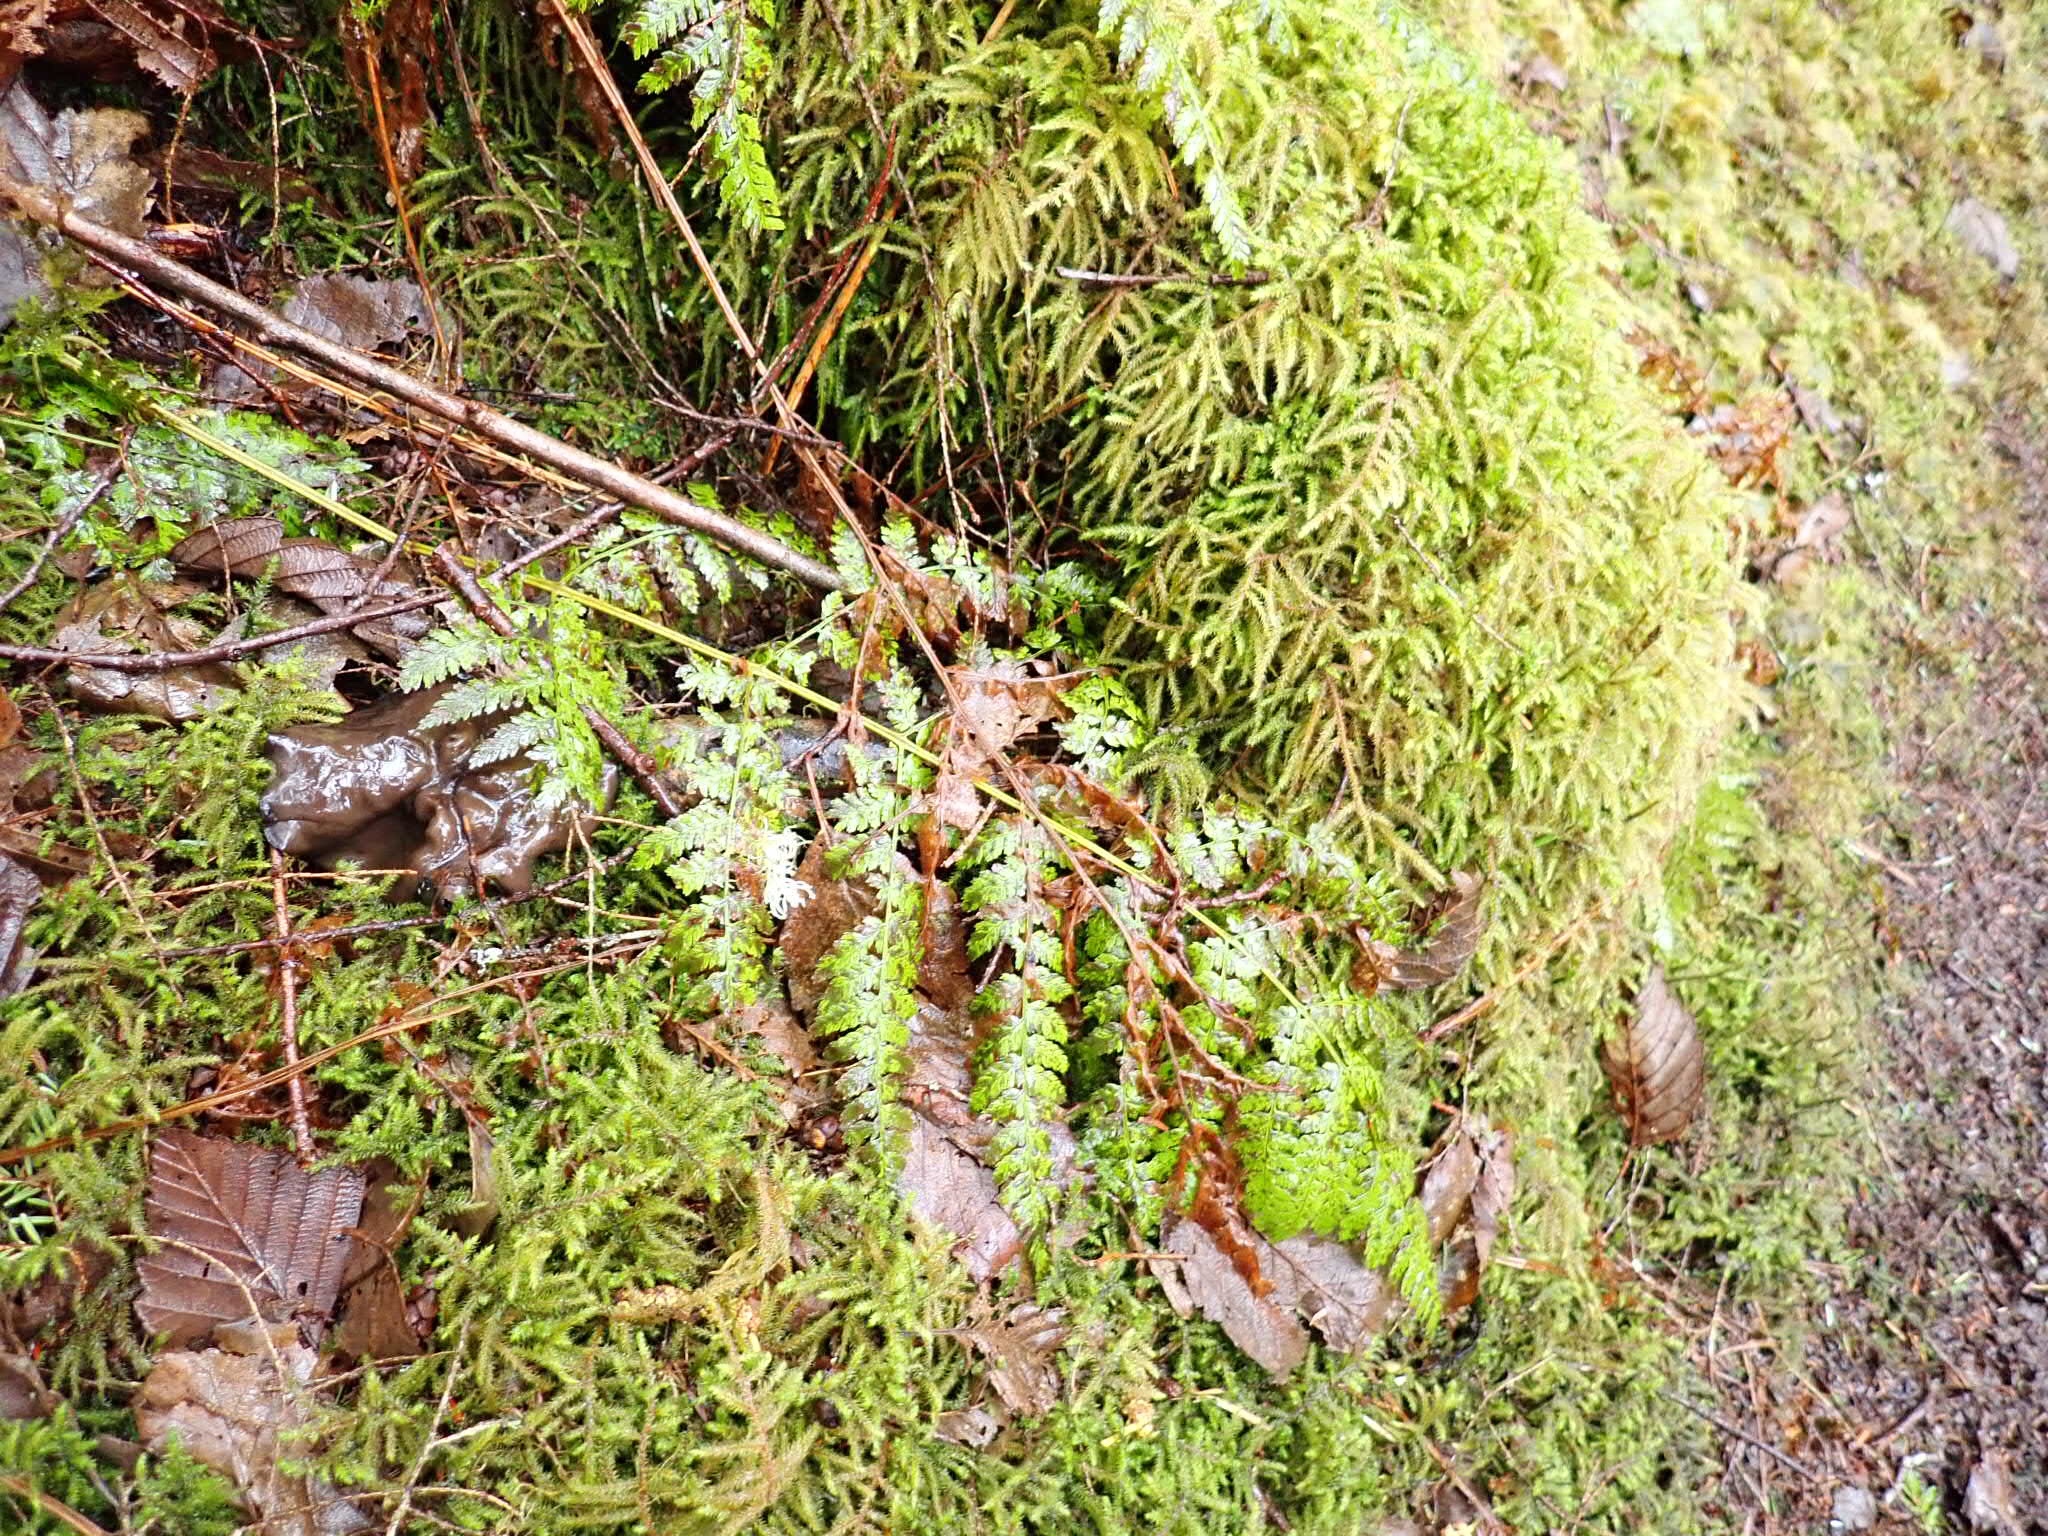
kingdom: Plantae
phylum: Bryophyta
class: Bryopsida
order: Hypnales
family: Hylocomiaceae
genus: Rhytidiadelphus
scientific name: Rhytidiadelphus loreus
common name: Lanky moss
